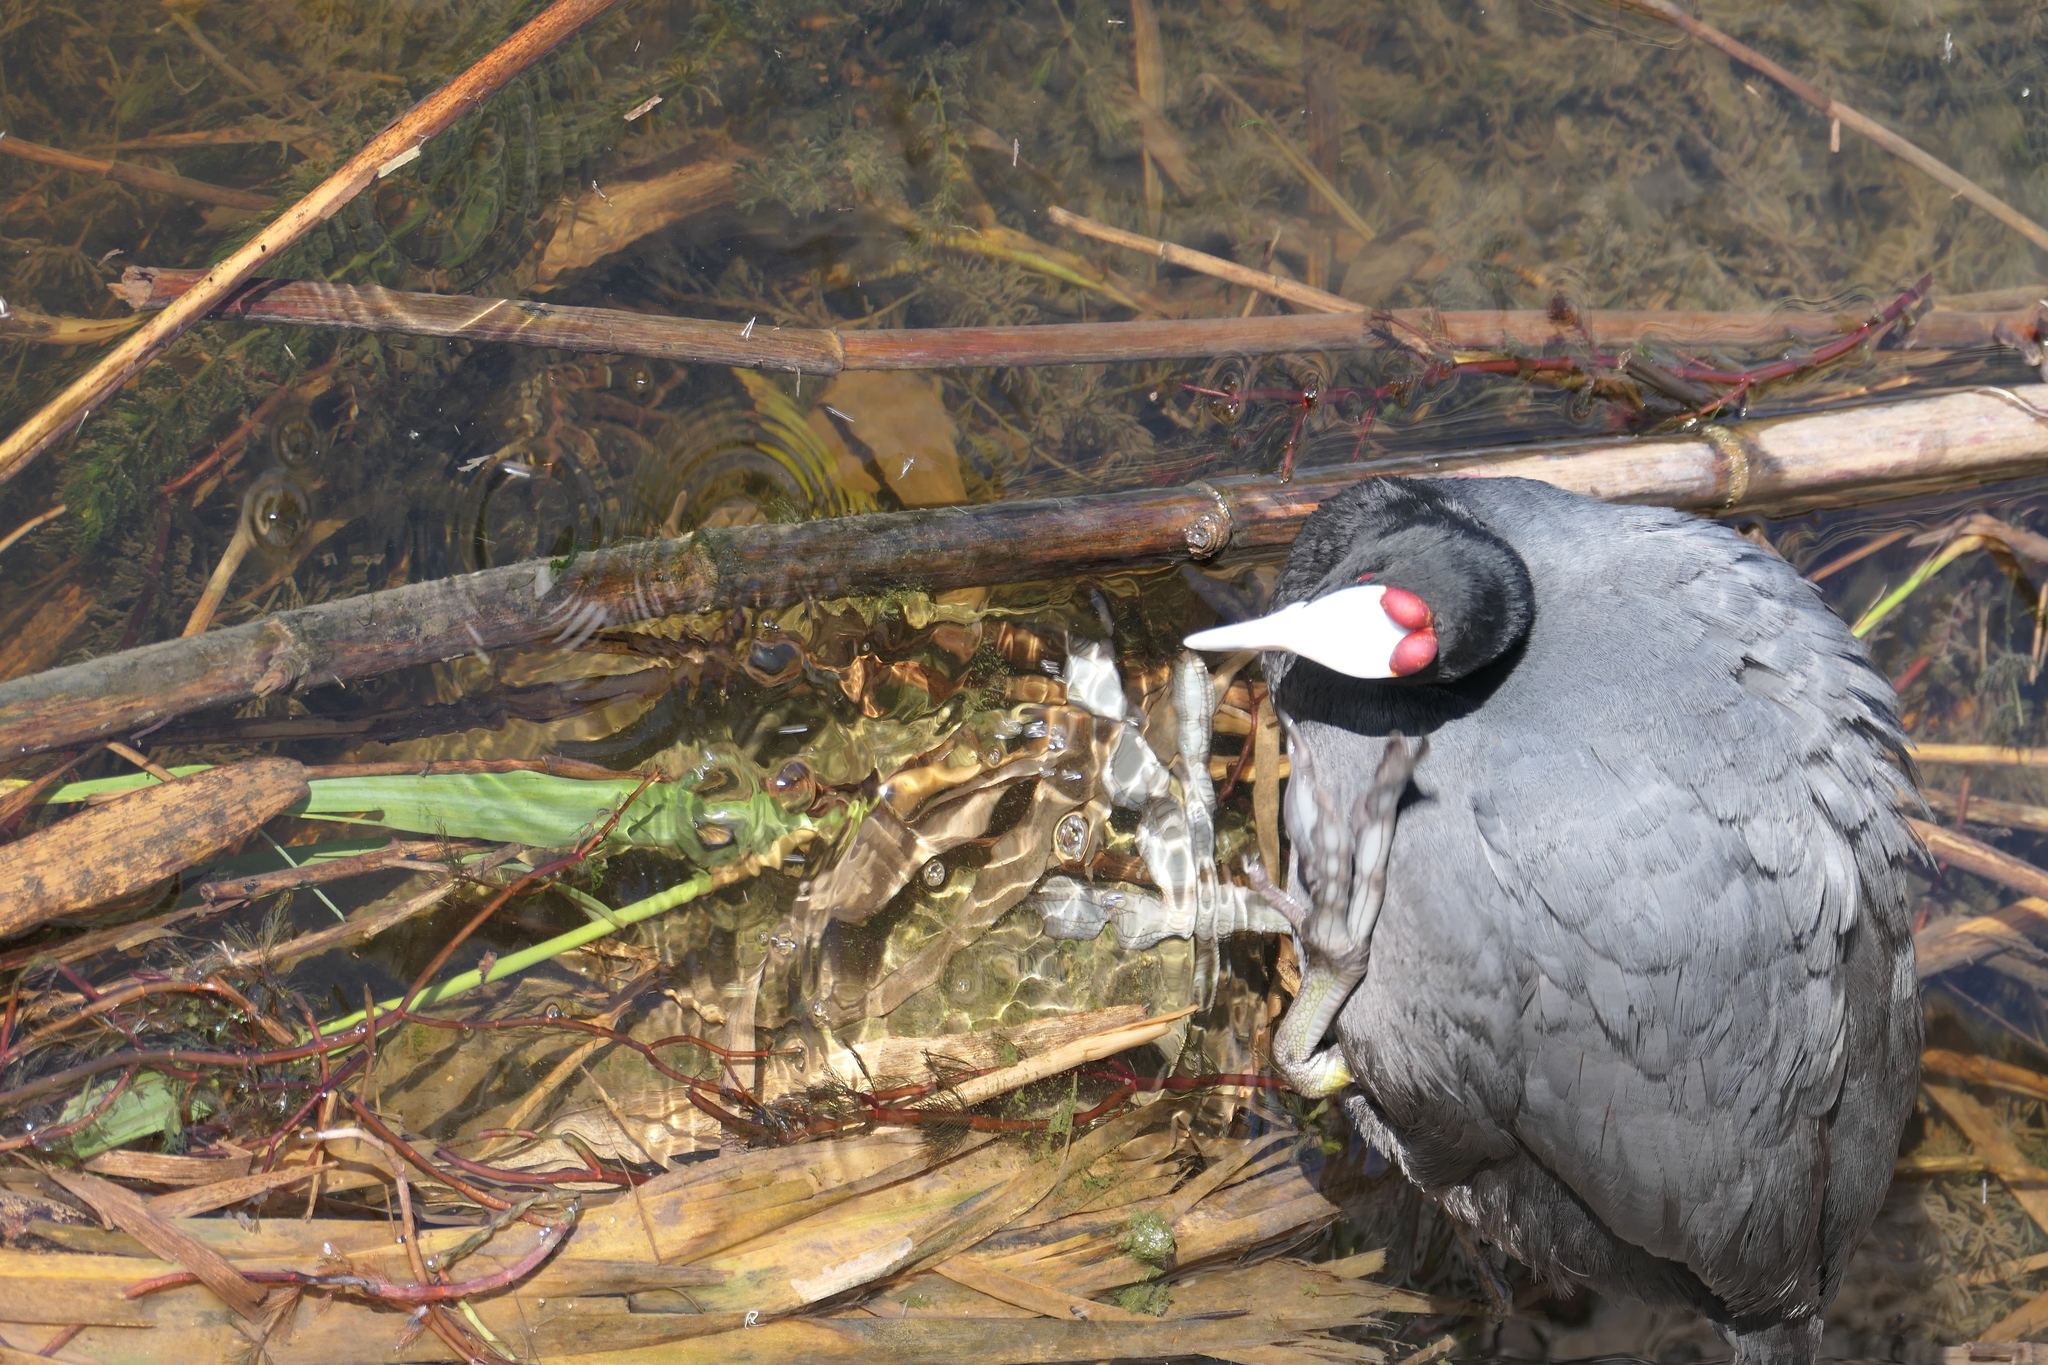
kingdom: Animalia
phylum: Chordata
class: Aves
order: Gruiformes
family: Rallidae
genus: Fulica
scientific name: Fulica cristata
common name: Red-knobbed coot
